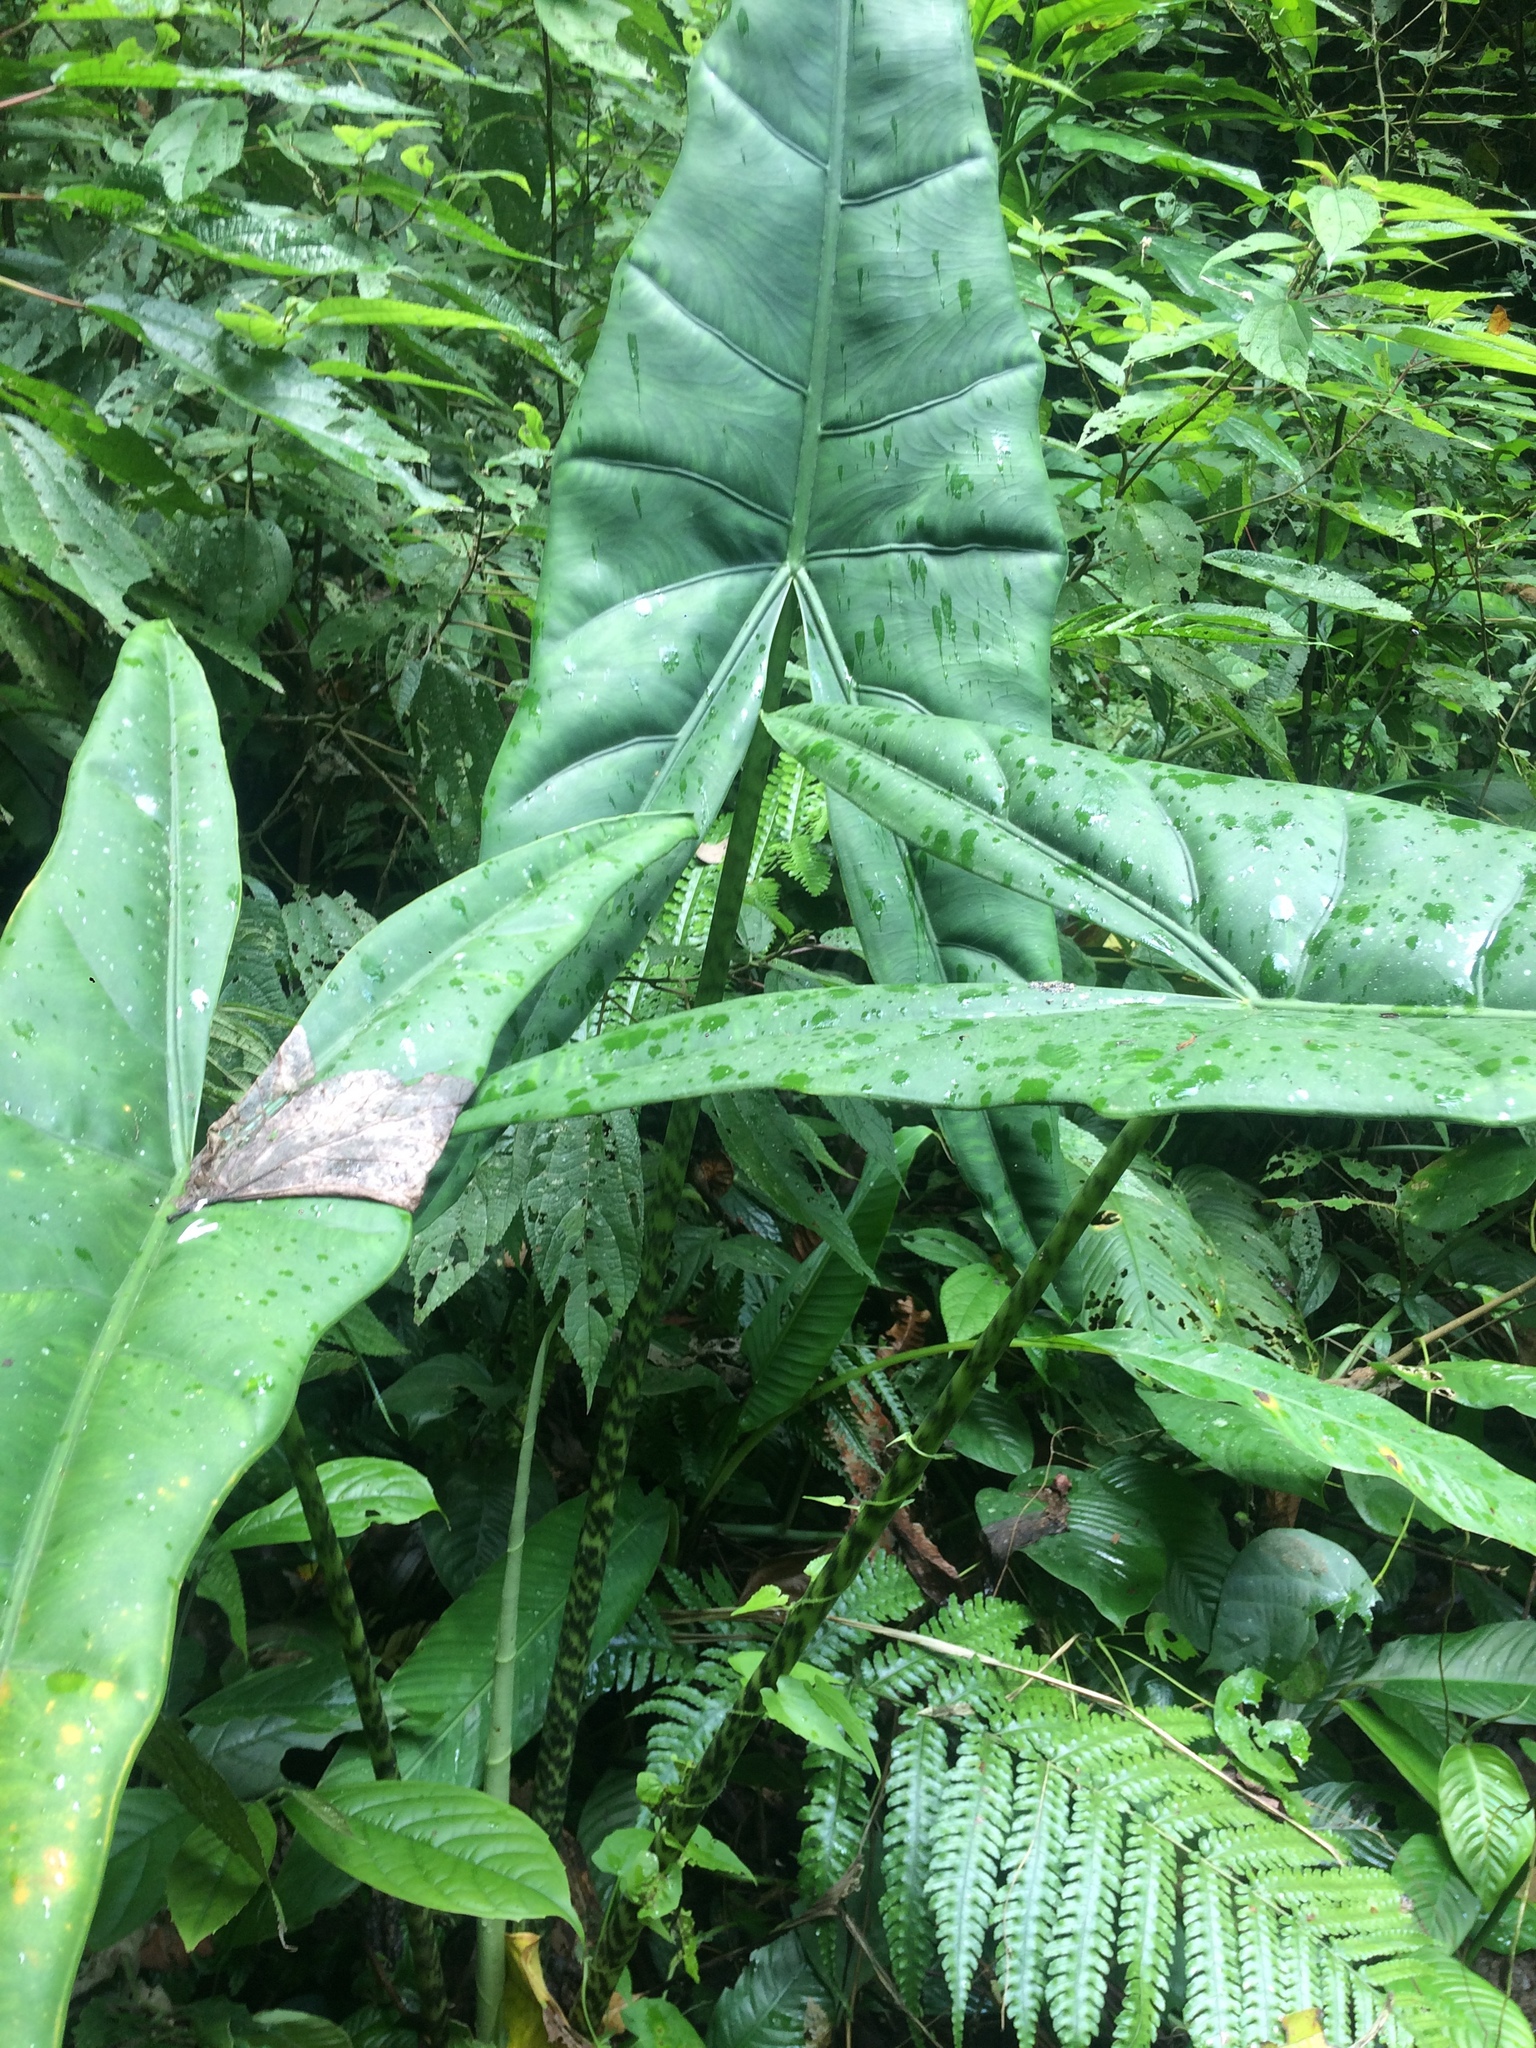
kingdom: Plantae
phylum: Tracheophyta
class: Liliopsida
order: Alismatales
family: Araceae
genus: Alocasia
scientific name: Alocasia zebrina
